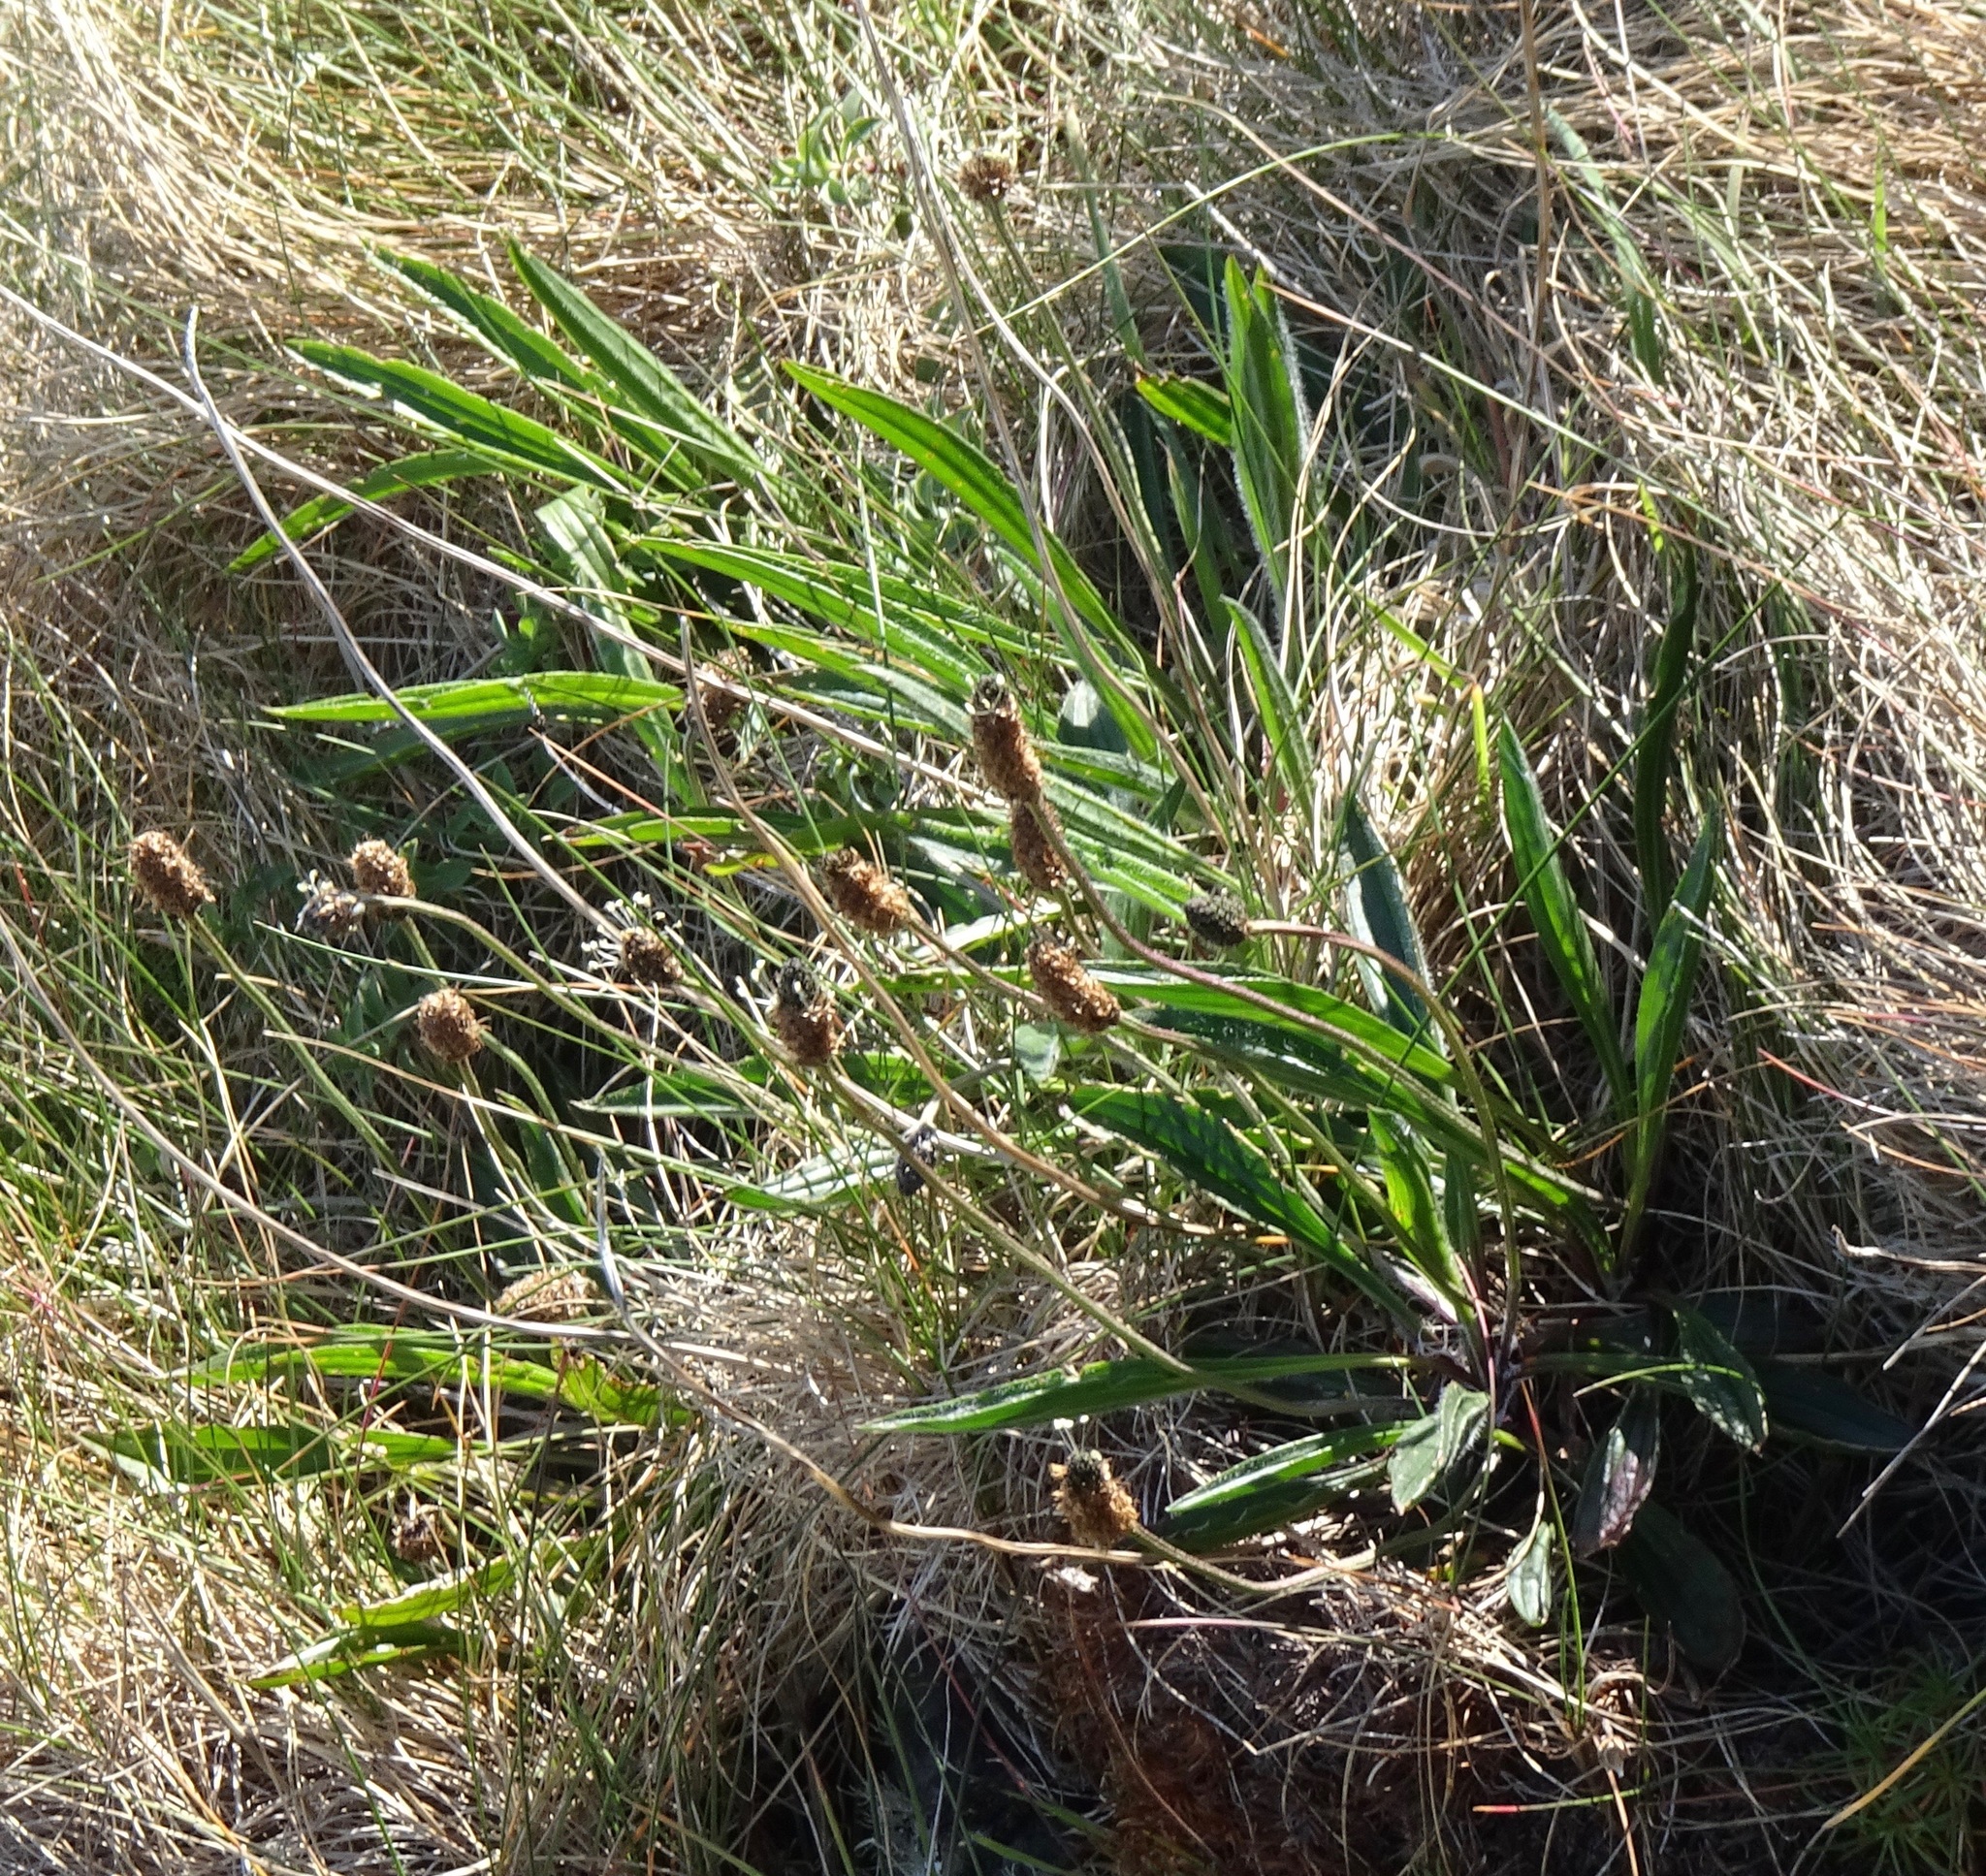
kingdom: Plantae
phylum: Tracheophyta
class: Magnoliopsida
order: Lamiales
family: Plantaginaceae
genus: Plantago
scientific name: Plantago lanceolata
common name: Ribwort plantain
